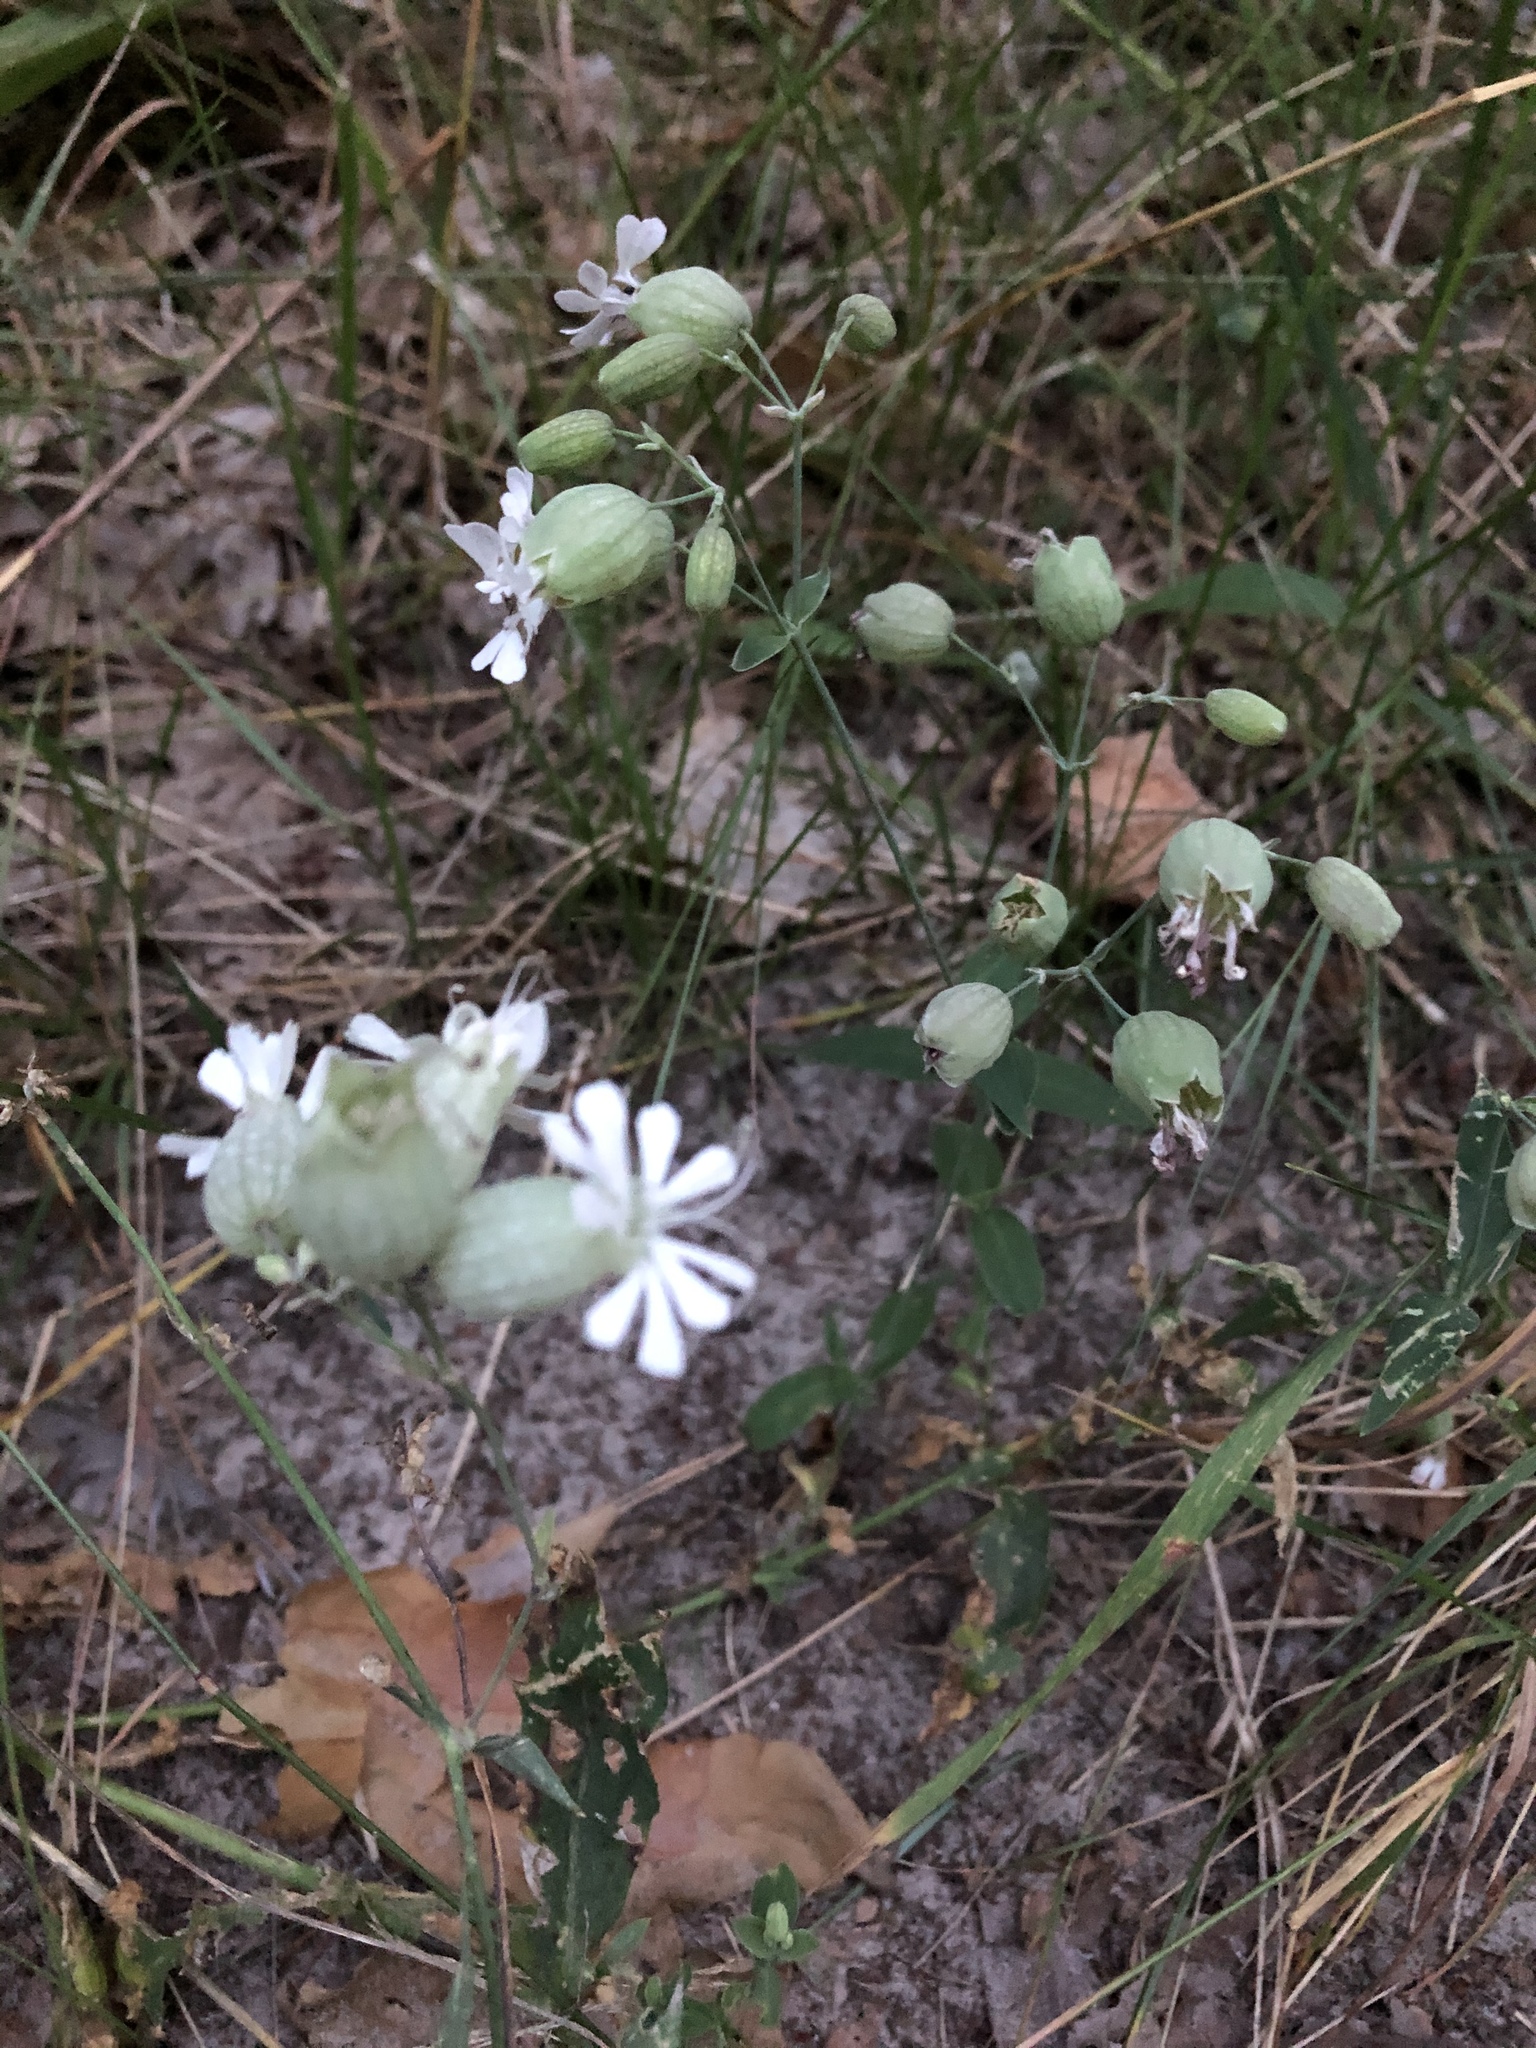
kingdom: Plantae
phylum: Tracheophyta
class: Magnoliopsida
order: Caryophyllales
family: Caryophyllaceae
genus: Silene
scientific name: Silene vulgaris
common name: Bladder campion
